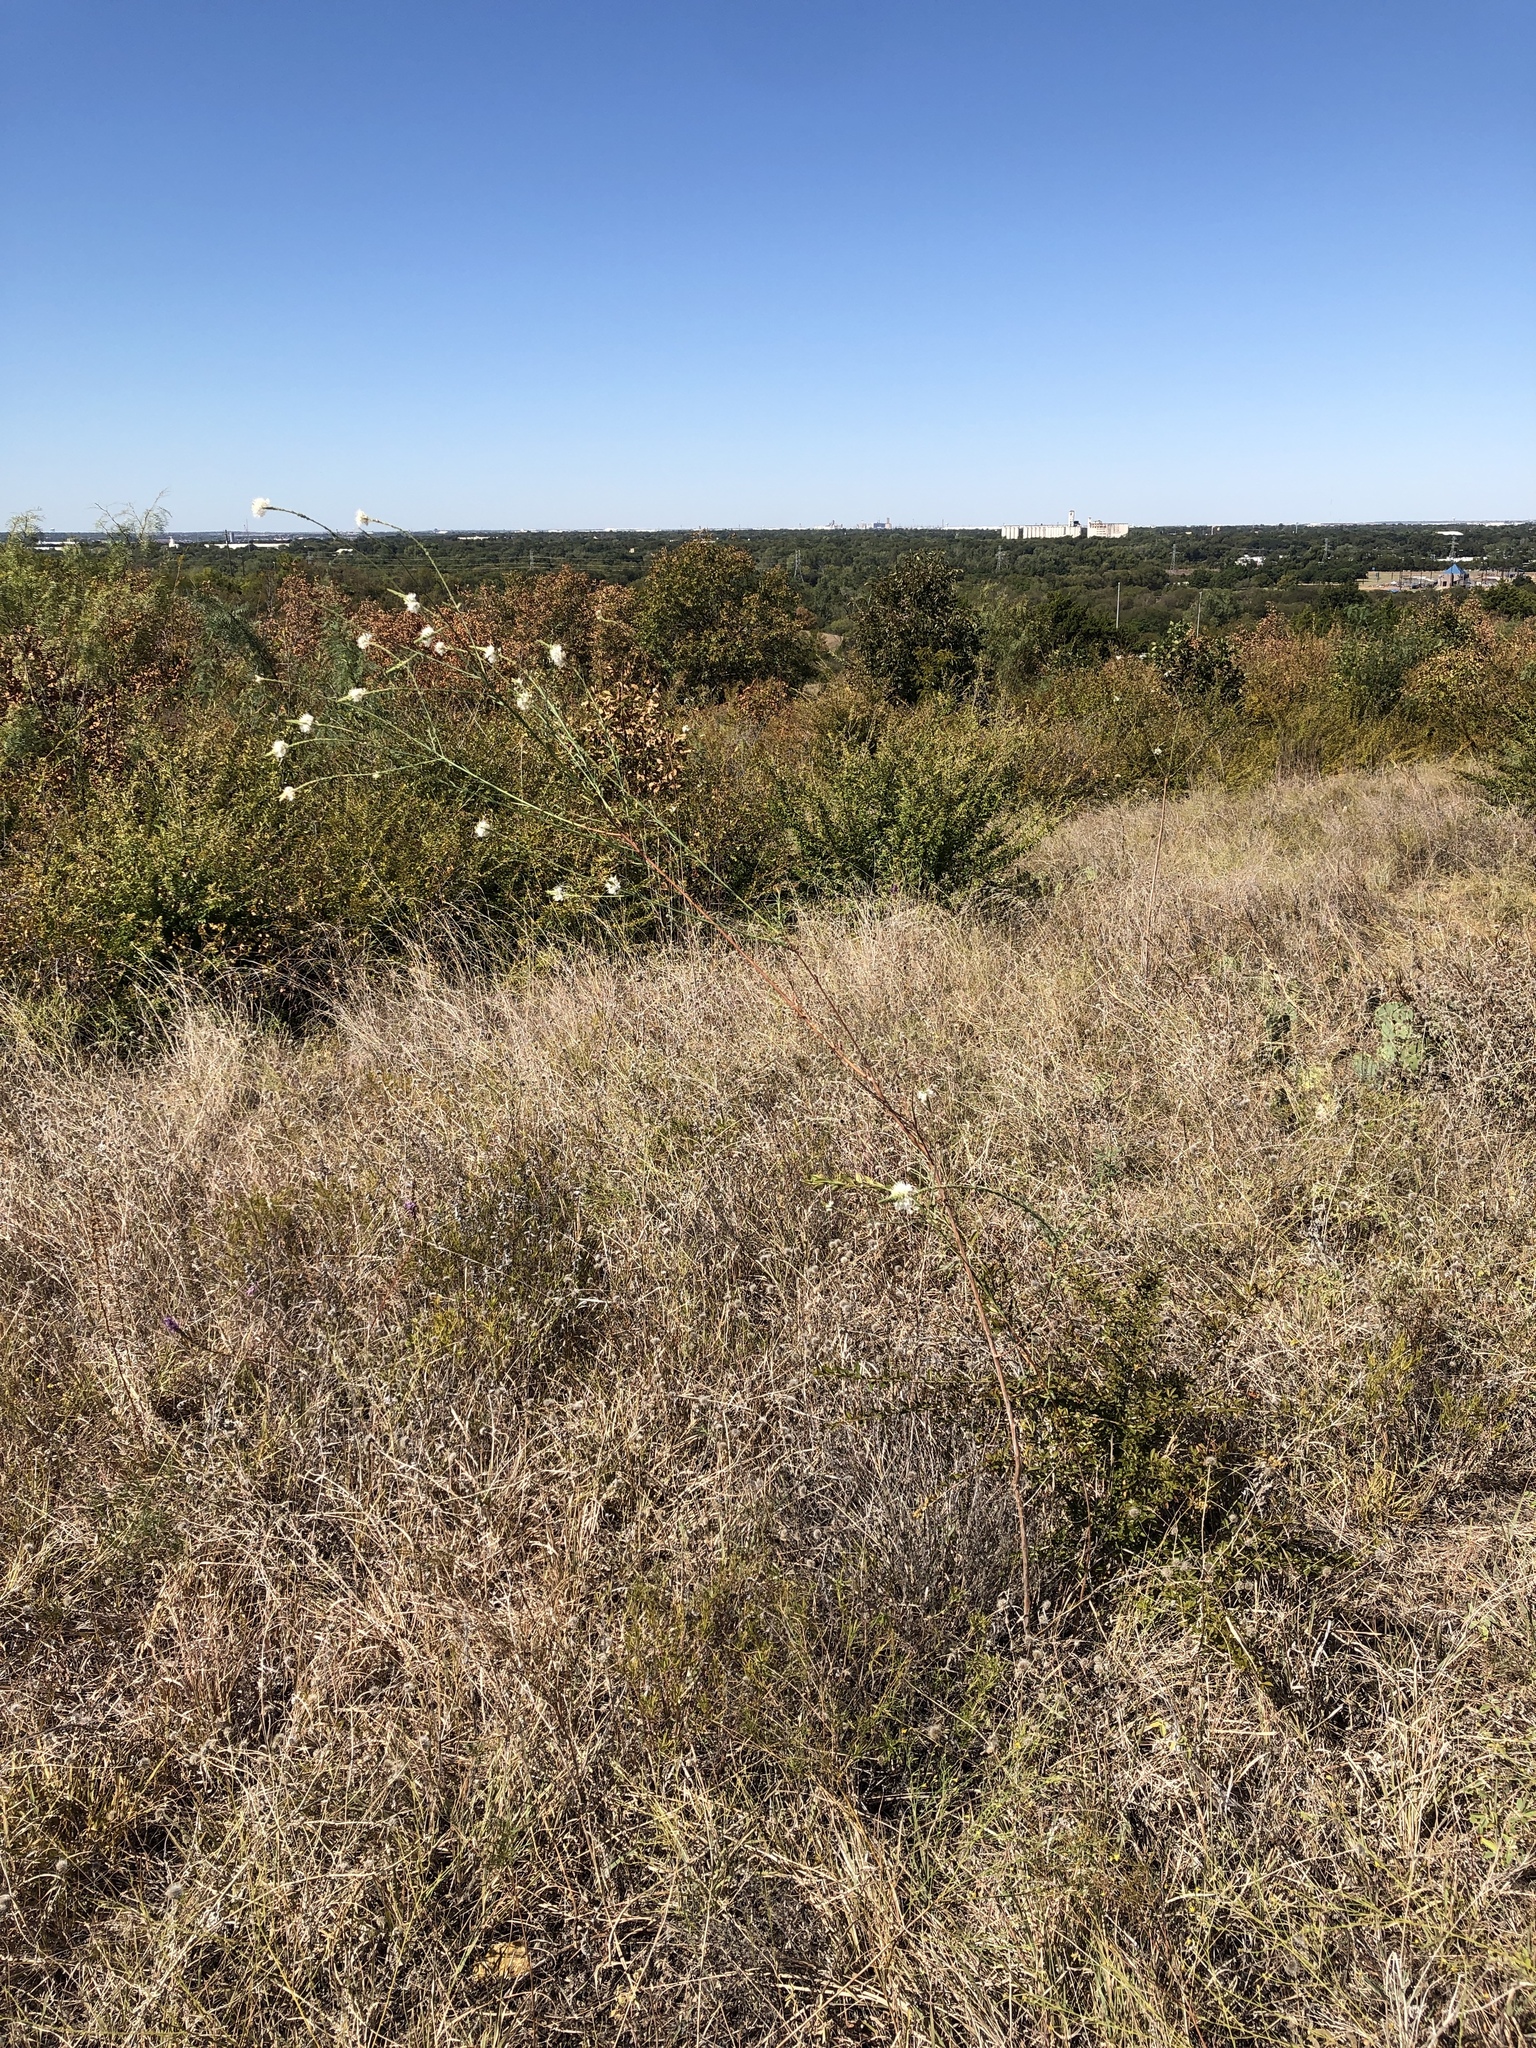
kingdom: Plantae
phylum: Tracheophyta
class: Magnoliopsida
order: Myrtales
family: Onagraceae
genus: Oenothera
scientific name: Oenothera glaucifolia
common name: False gaura
